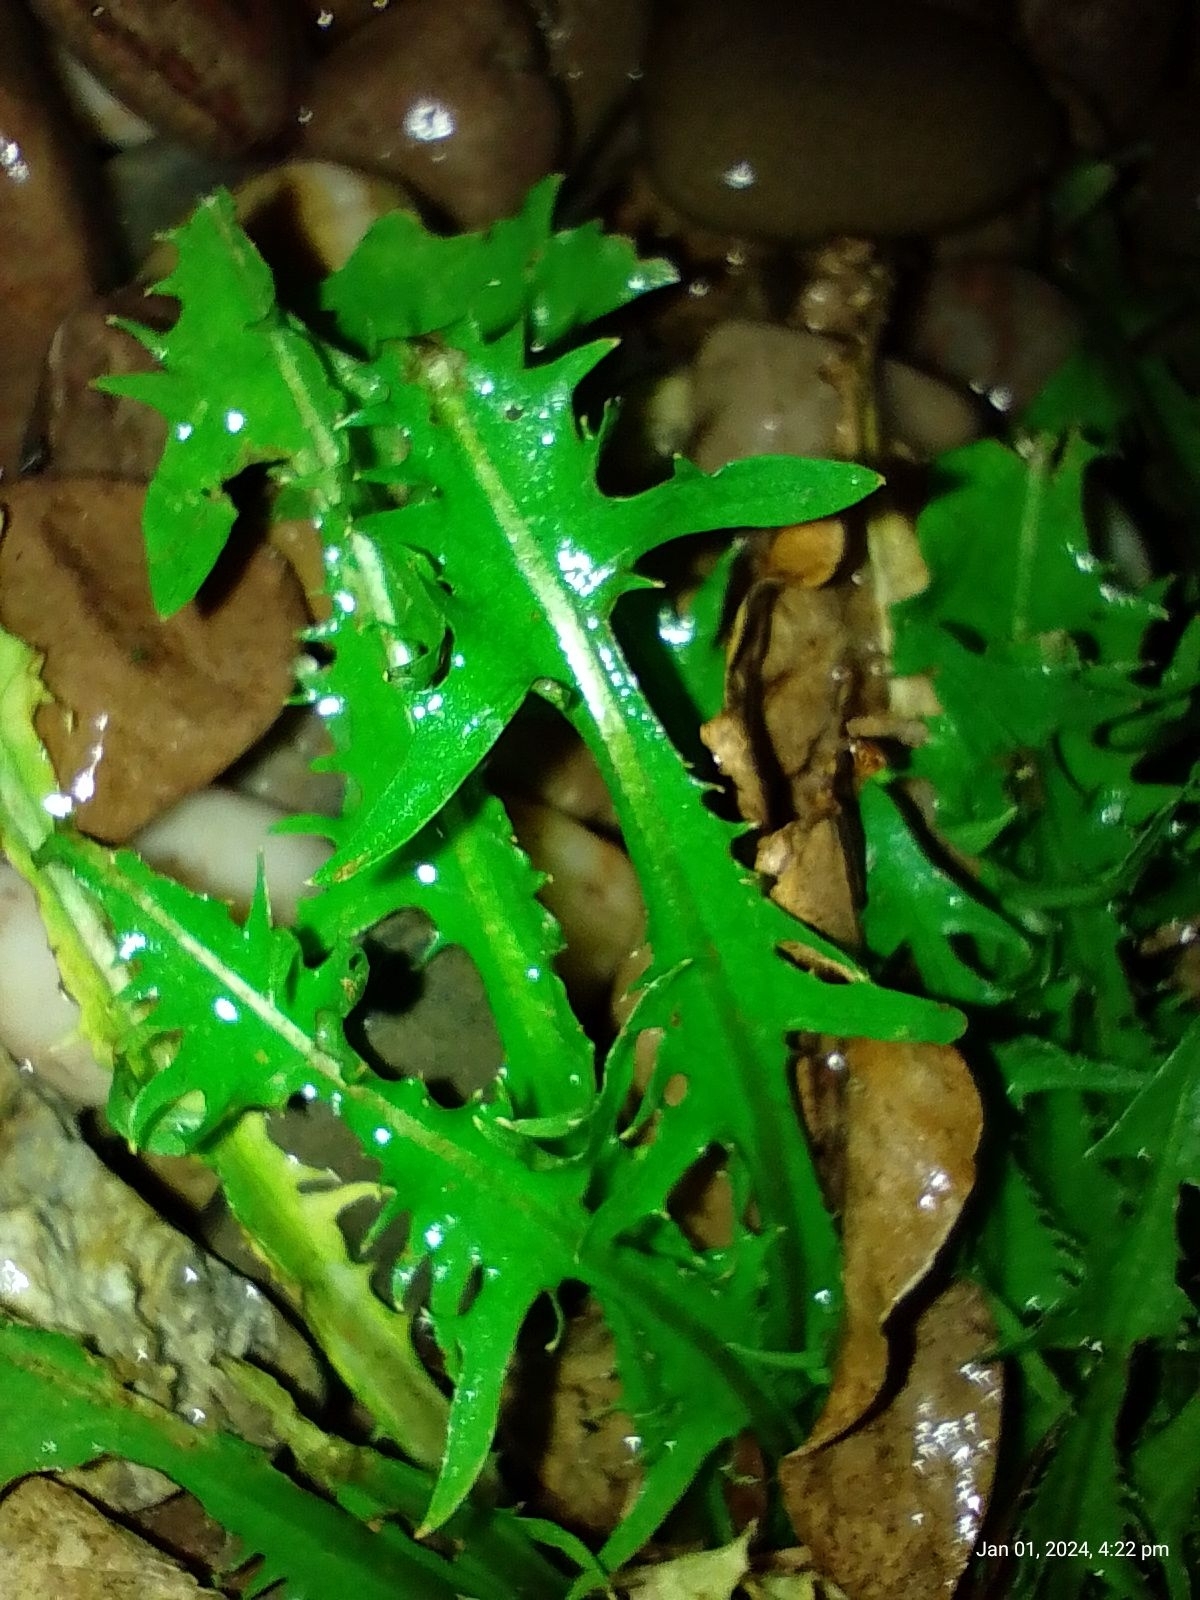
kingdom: Plantae
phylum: Tracheophyta
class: Magnoliopsida
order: Asterales
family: Asteraceae
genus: Taraxacum
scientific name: Taraxacum officinale
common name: Common dandelion
